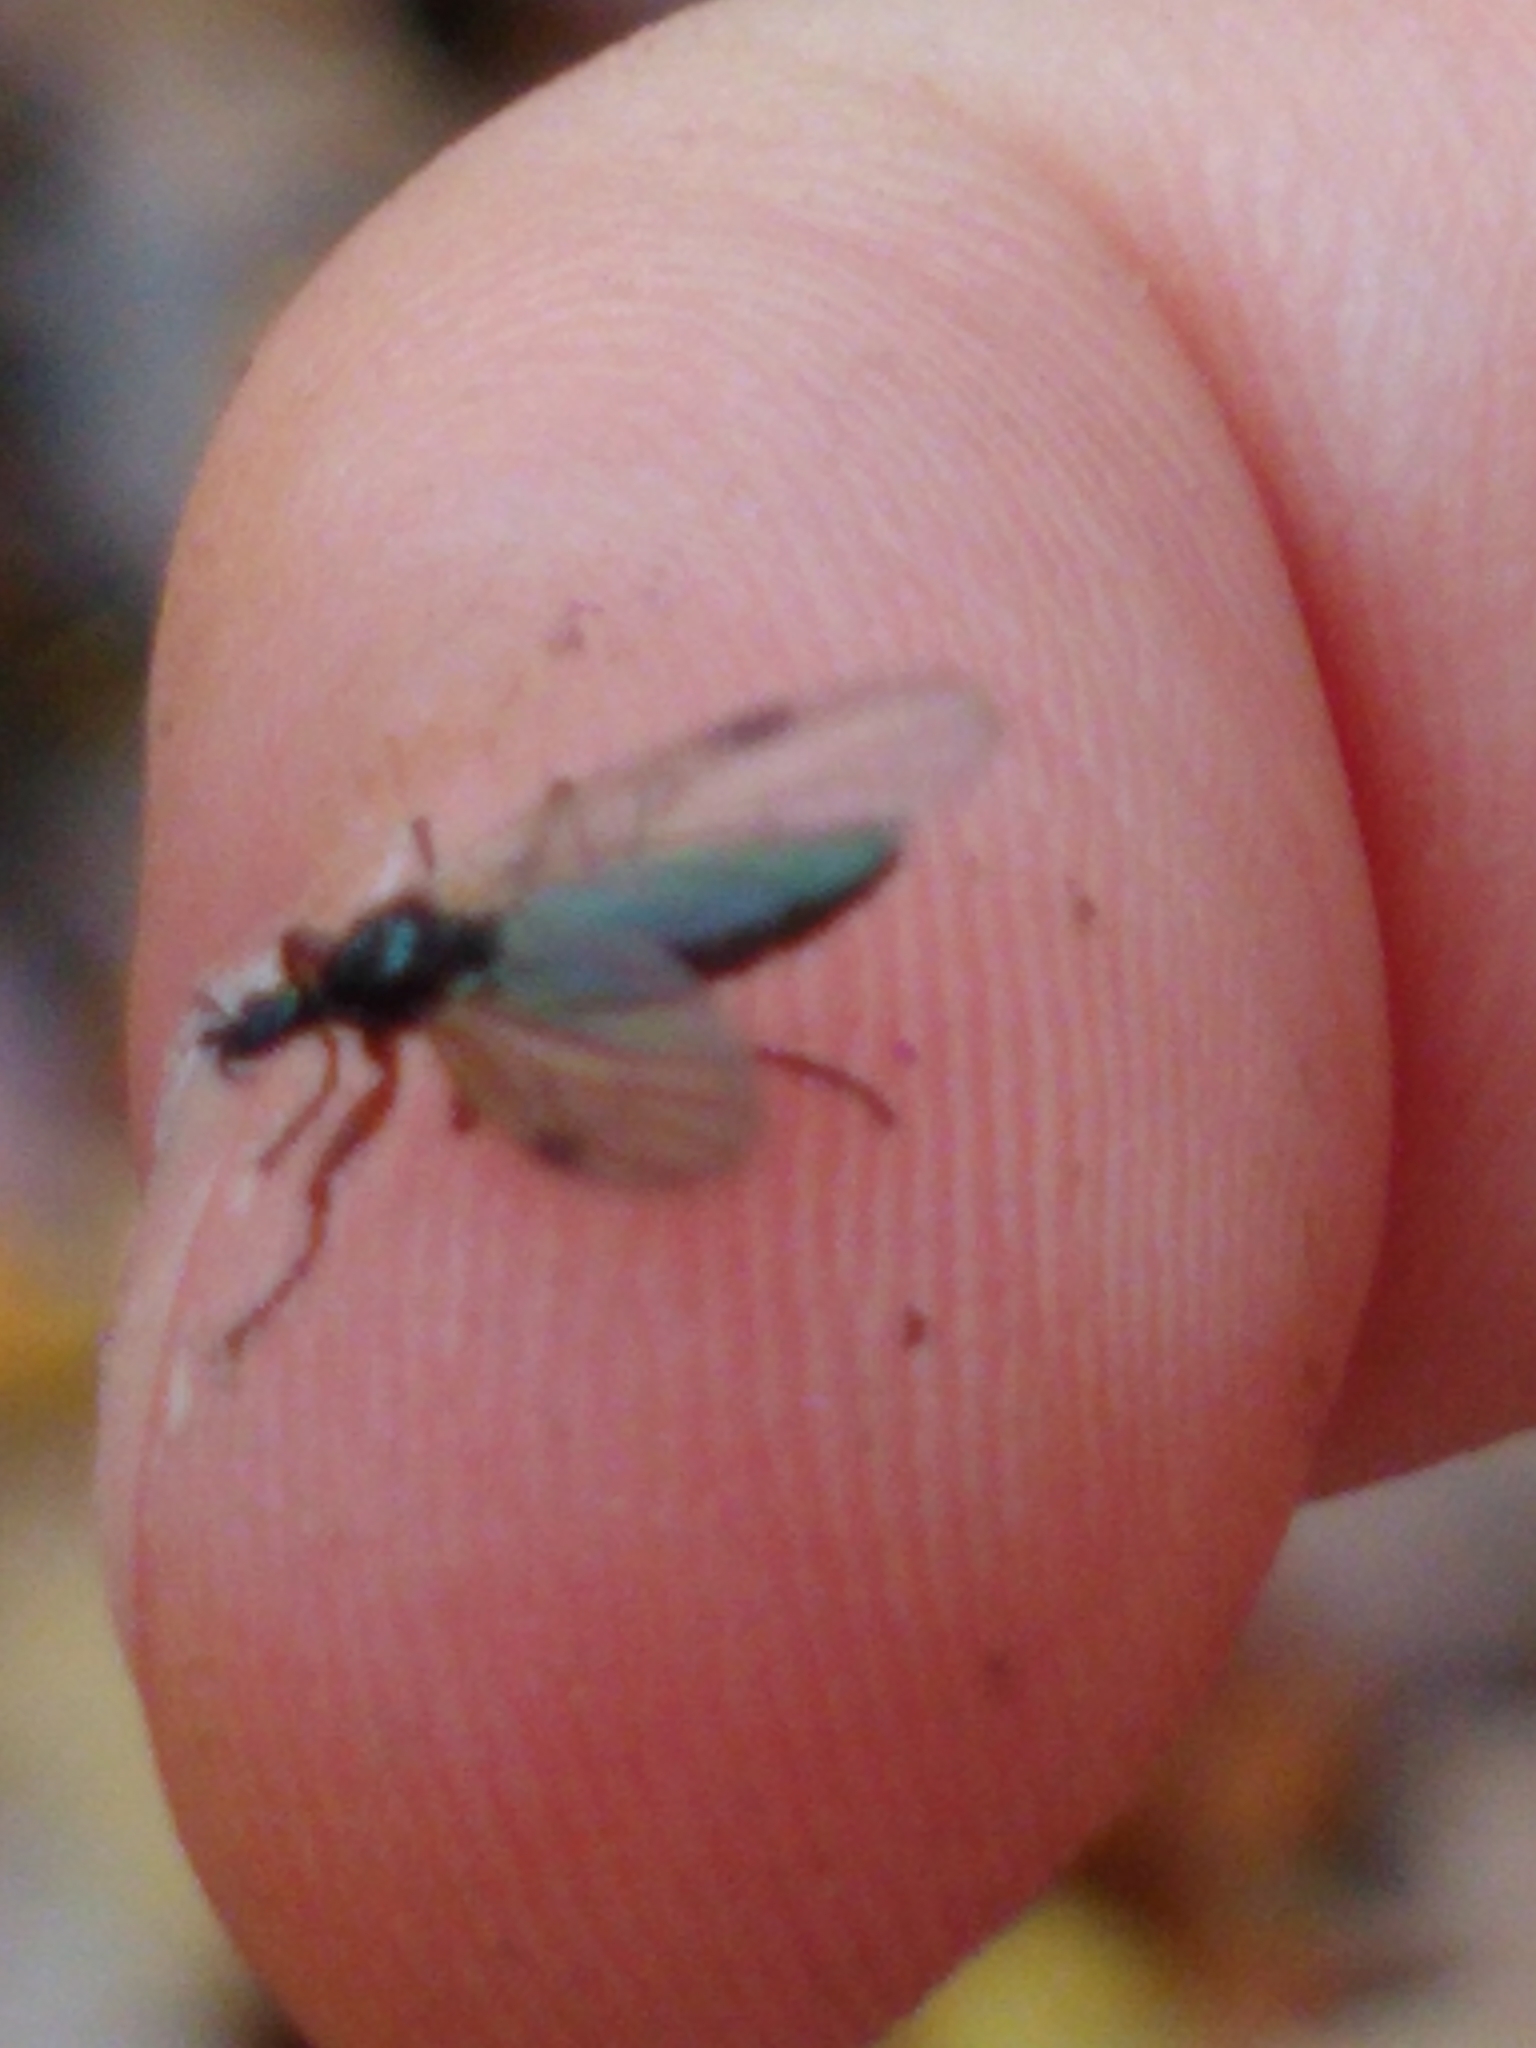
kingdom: Animalia
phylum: Arthropoda
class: Insecta
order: Diptera
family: Bibionidae
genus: Bibio
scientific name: Bibio slossonae
